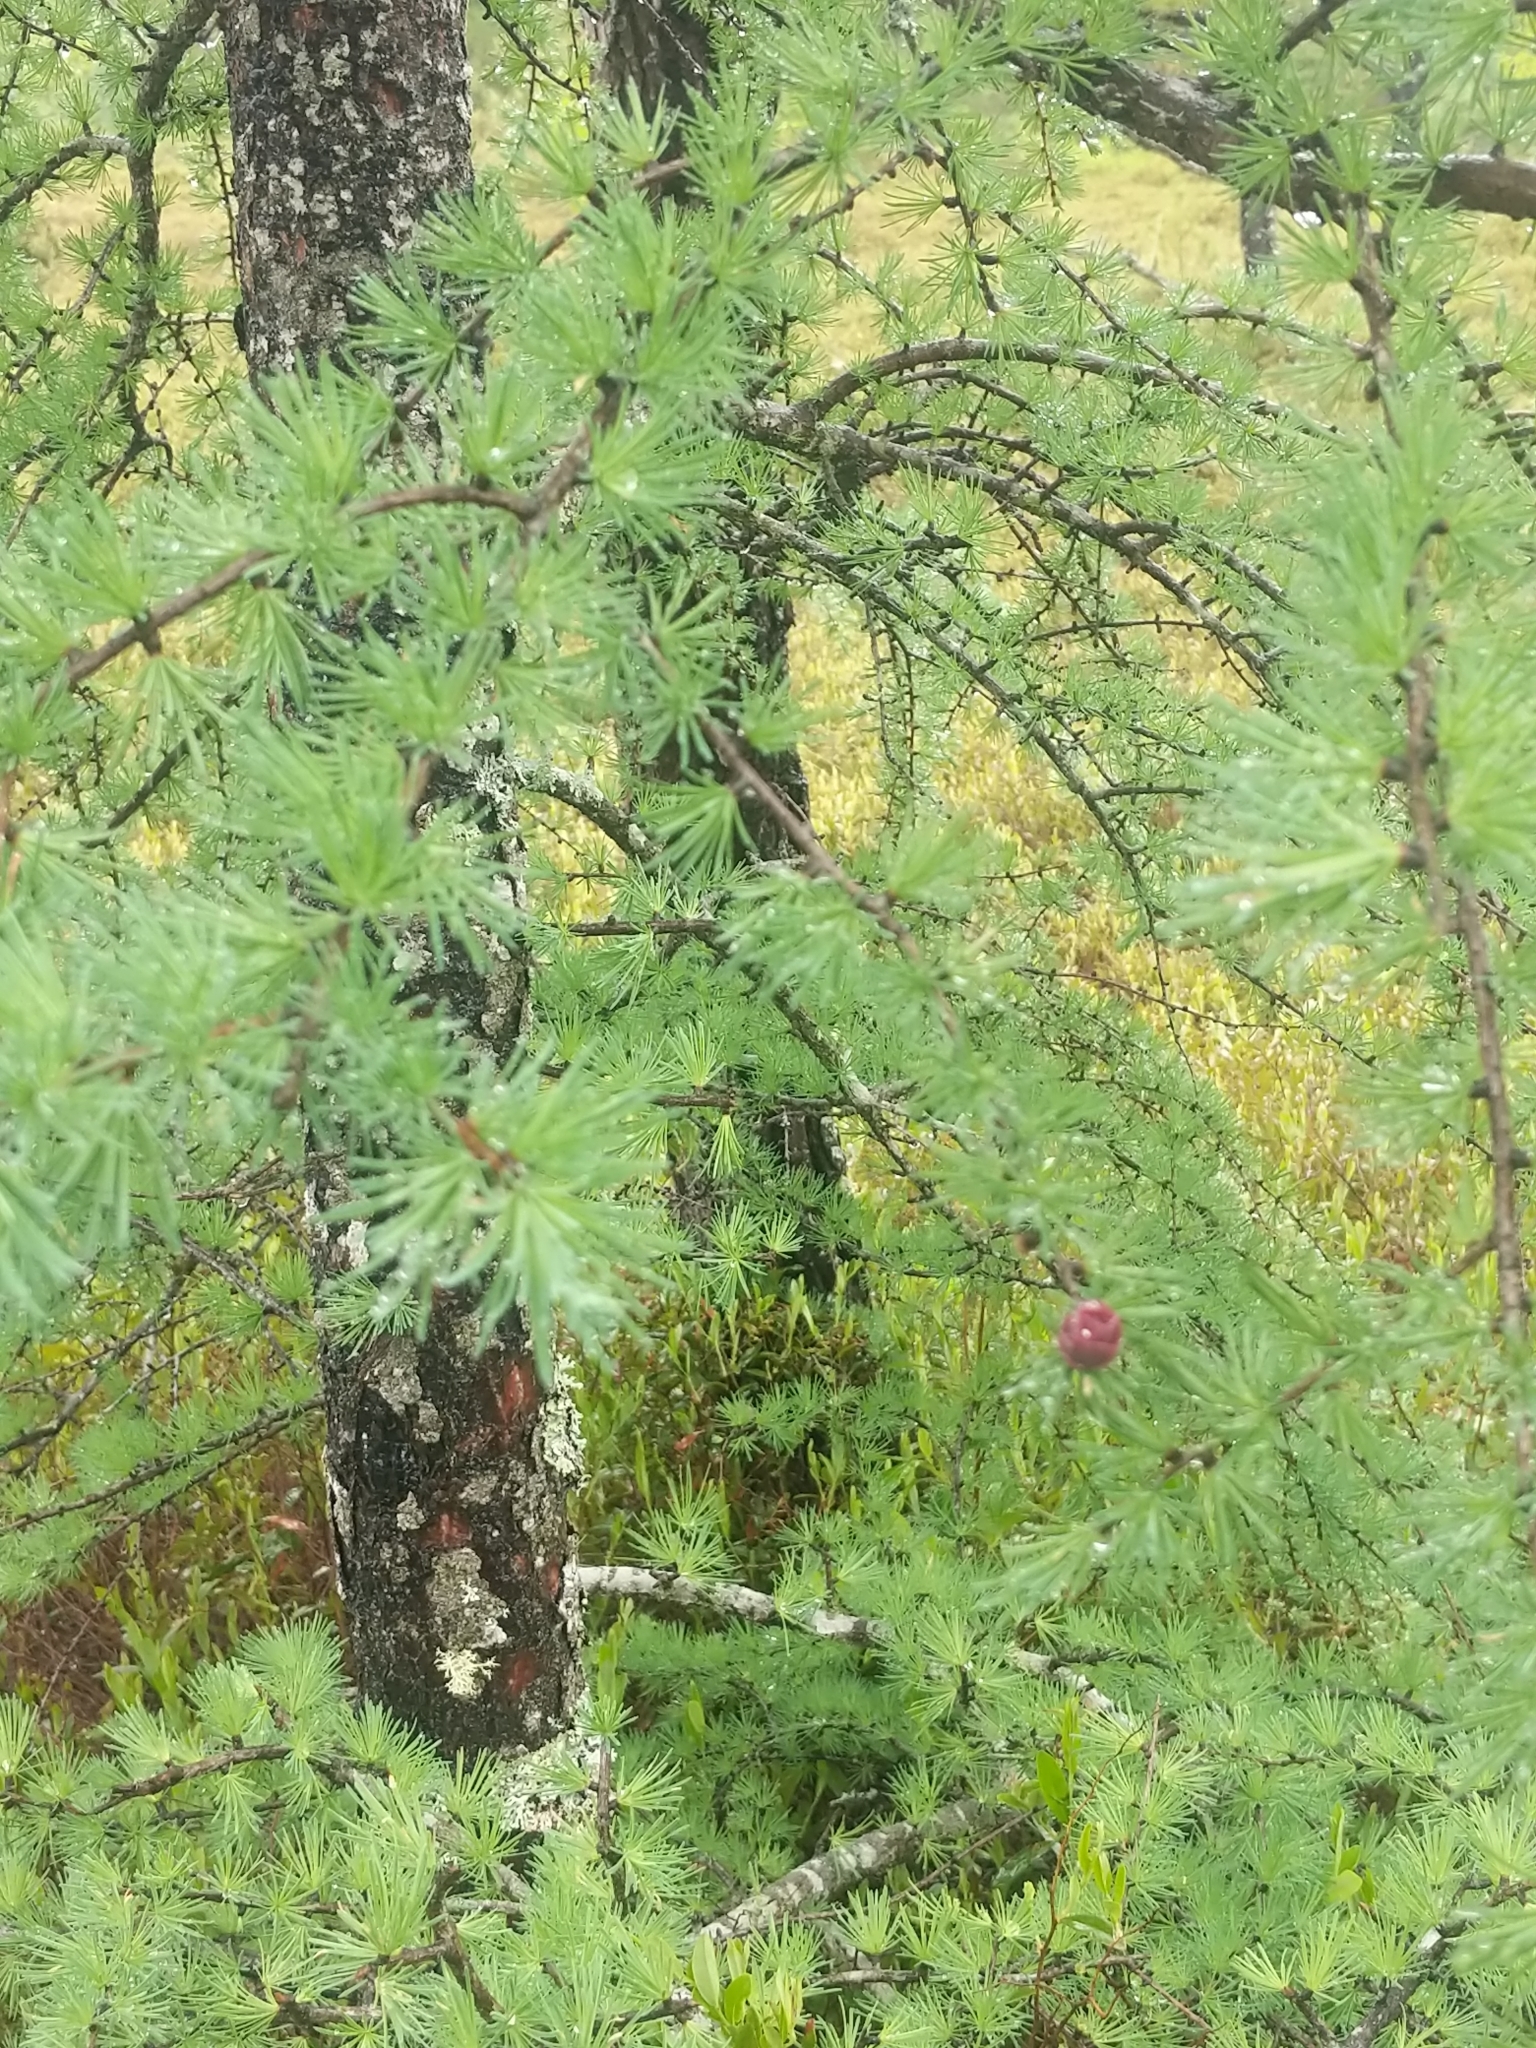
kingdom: Plantae
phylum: Tracheophyta
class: Pinopsida
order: Pinales
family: Pinaceae
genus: Larix
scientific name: Larix laricina
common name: American larch
